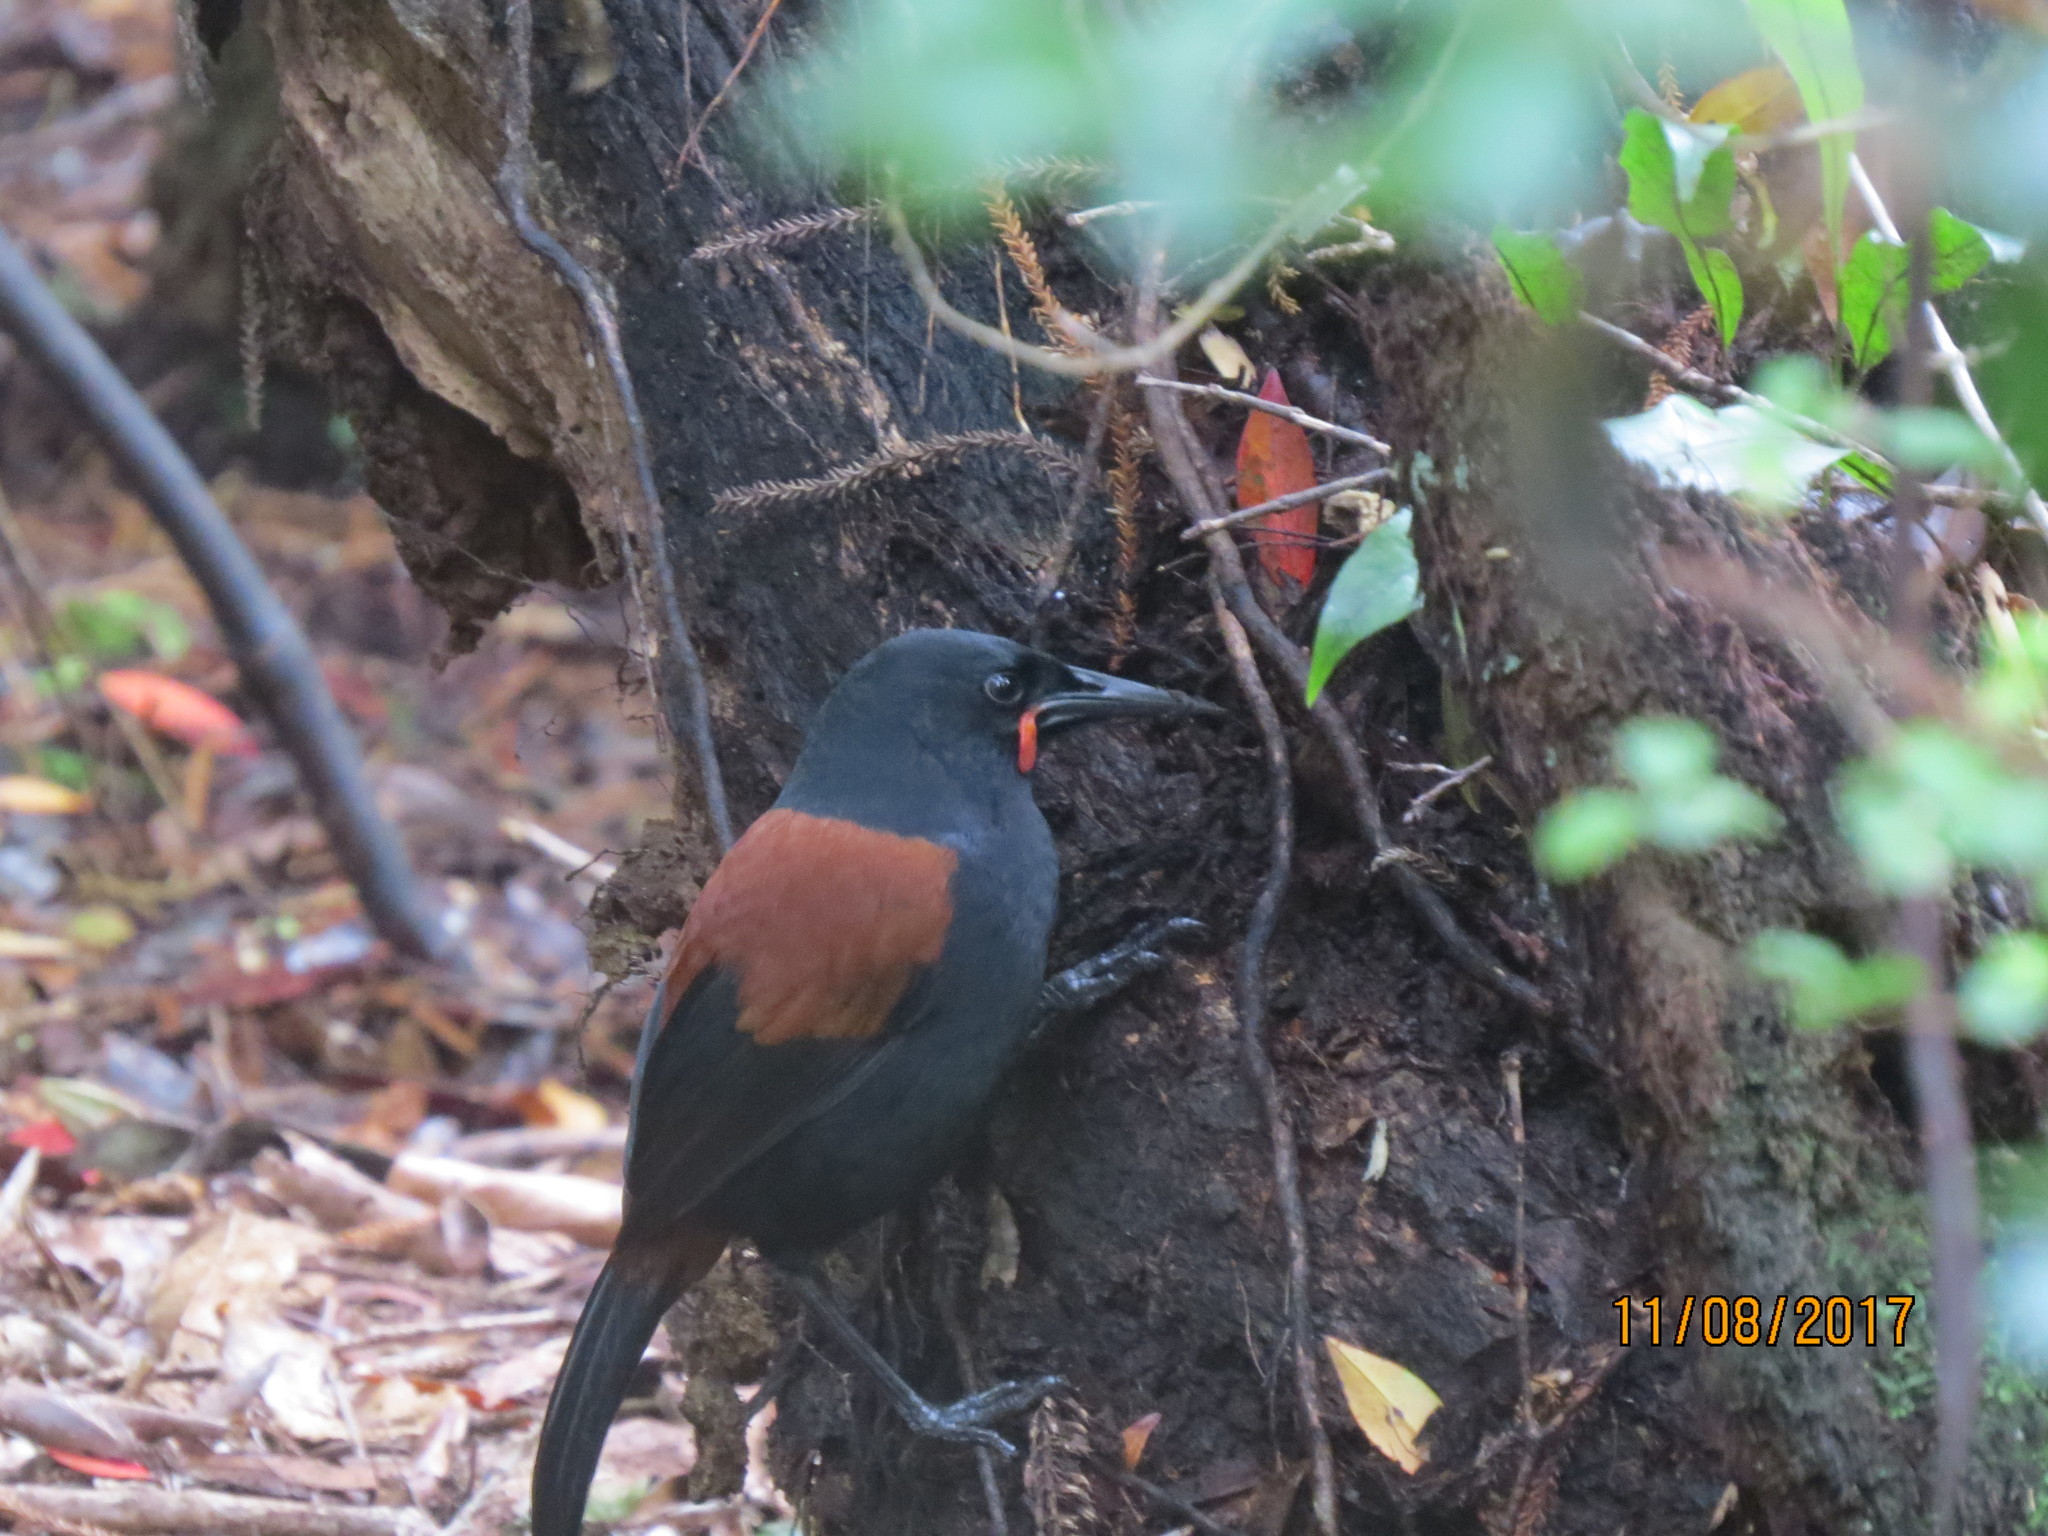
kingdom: Animalia
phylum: Chordata
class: Aves
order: Passeriformes
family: Callaeatidae
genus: Philesturnus
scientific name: Philesturnus carunculatus
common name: South island saddleback
